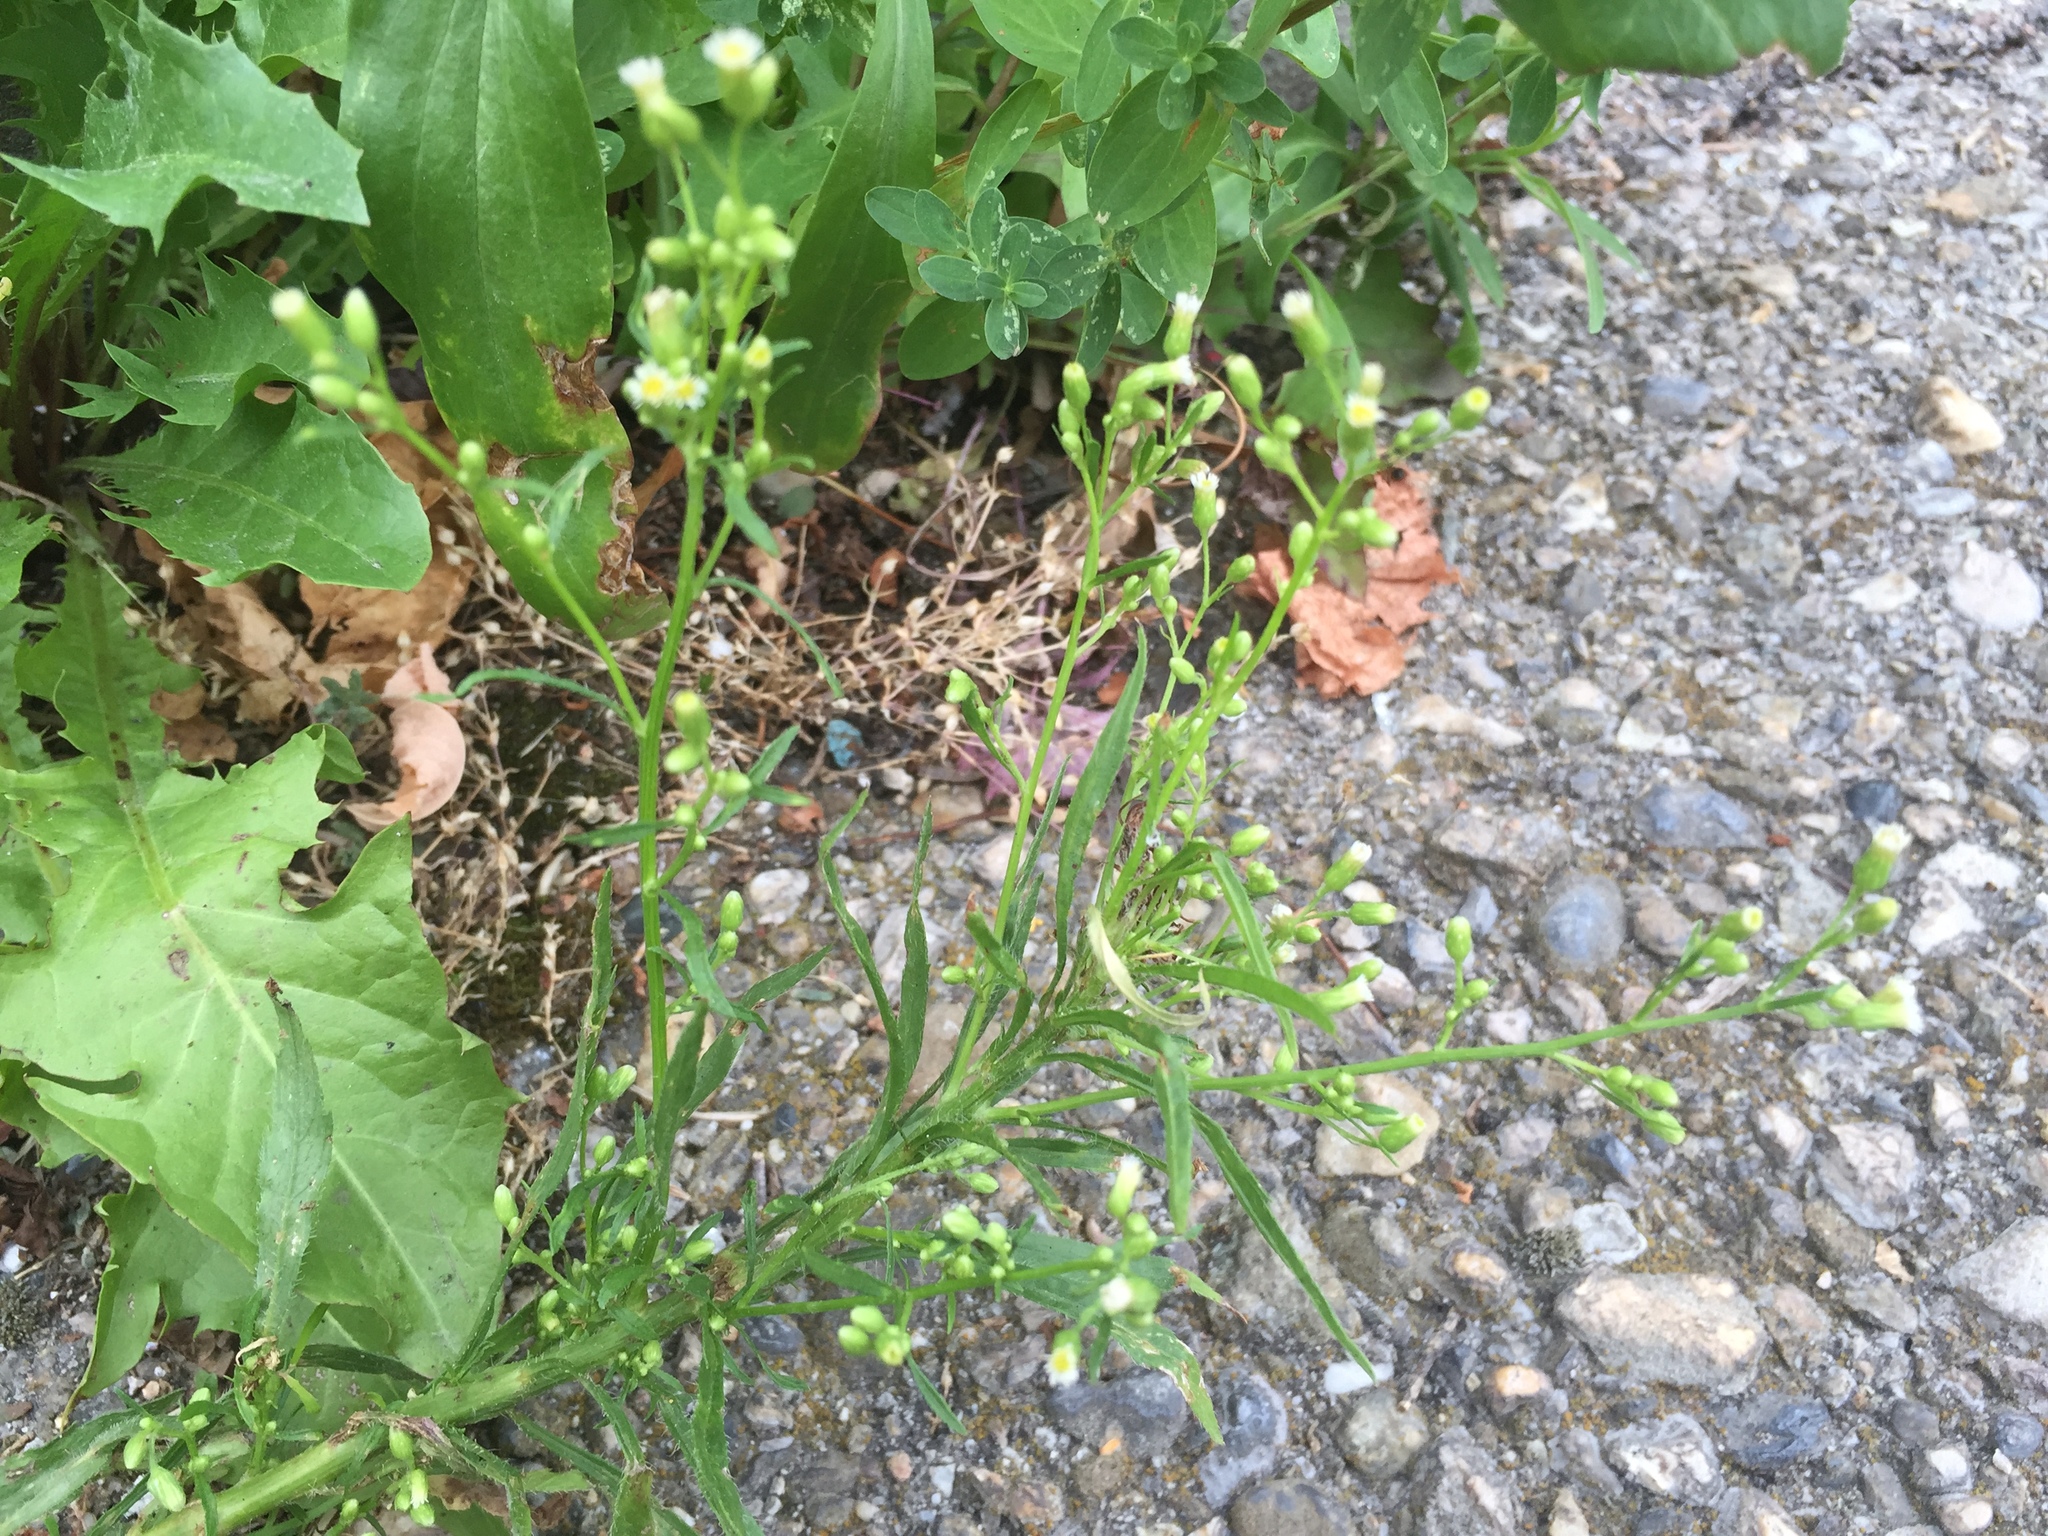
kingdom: Plantae
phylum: Tracheophyta
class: Magnoliopsida
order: Asterales
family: Asteraceae
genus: Erigeron
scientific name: Erigeron canadensis
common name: Canadian fleabane
